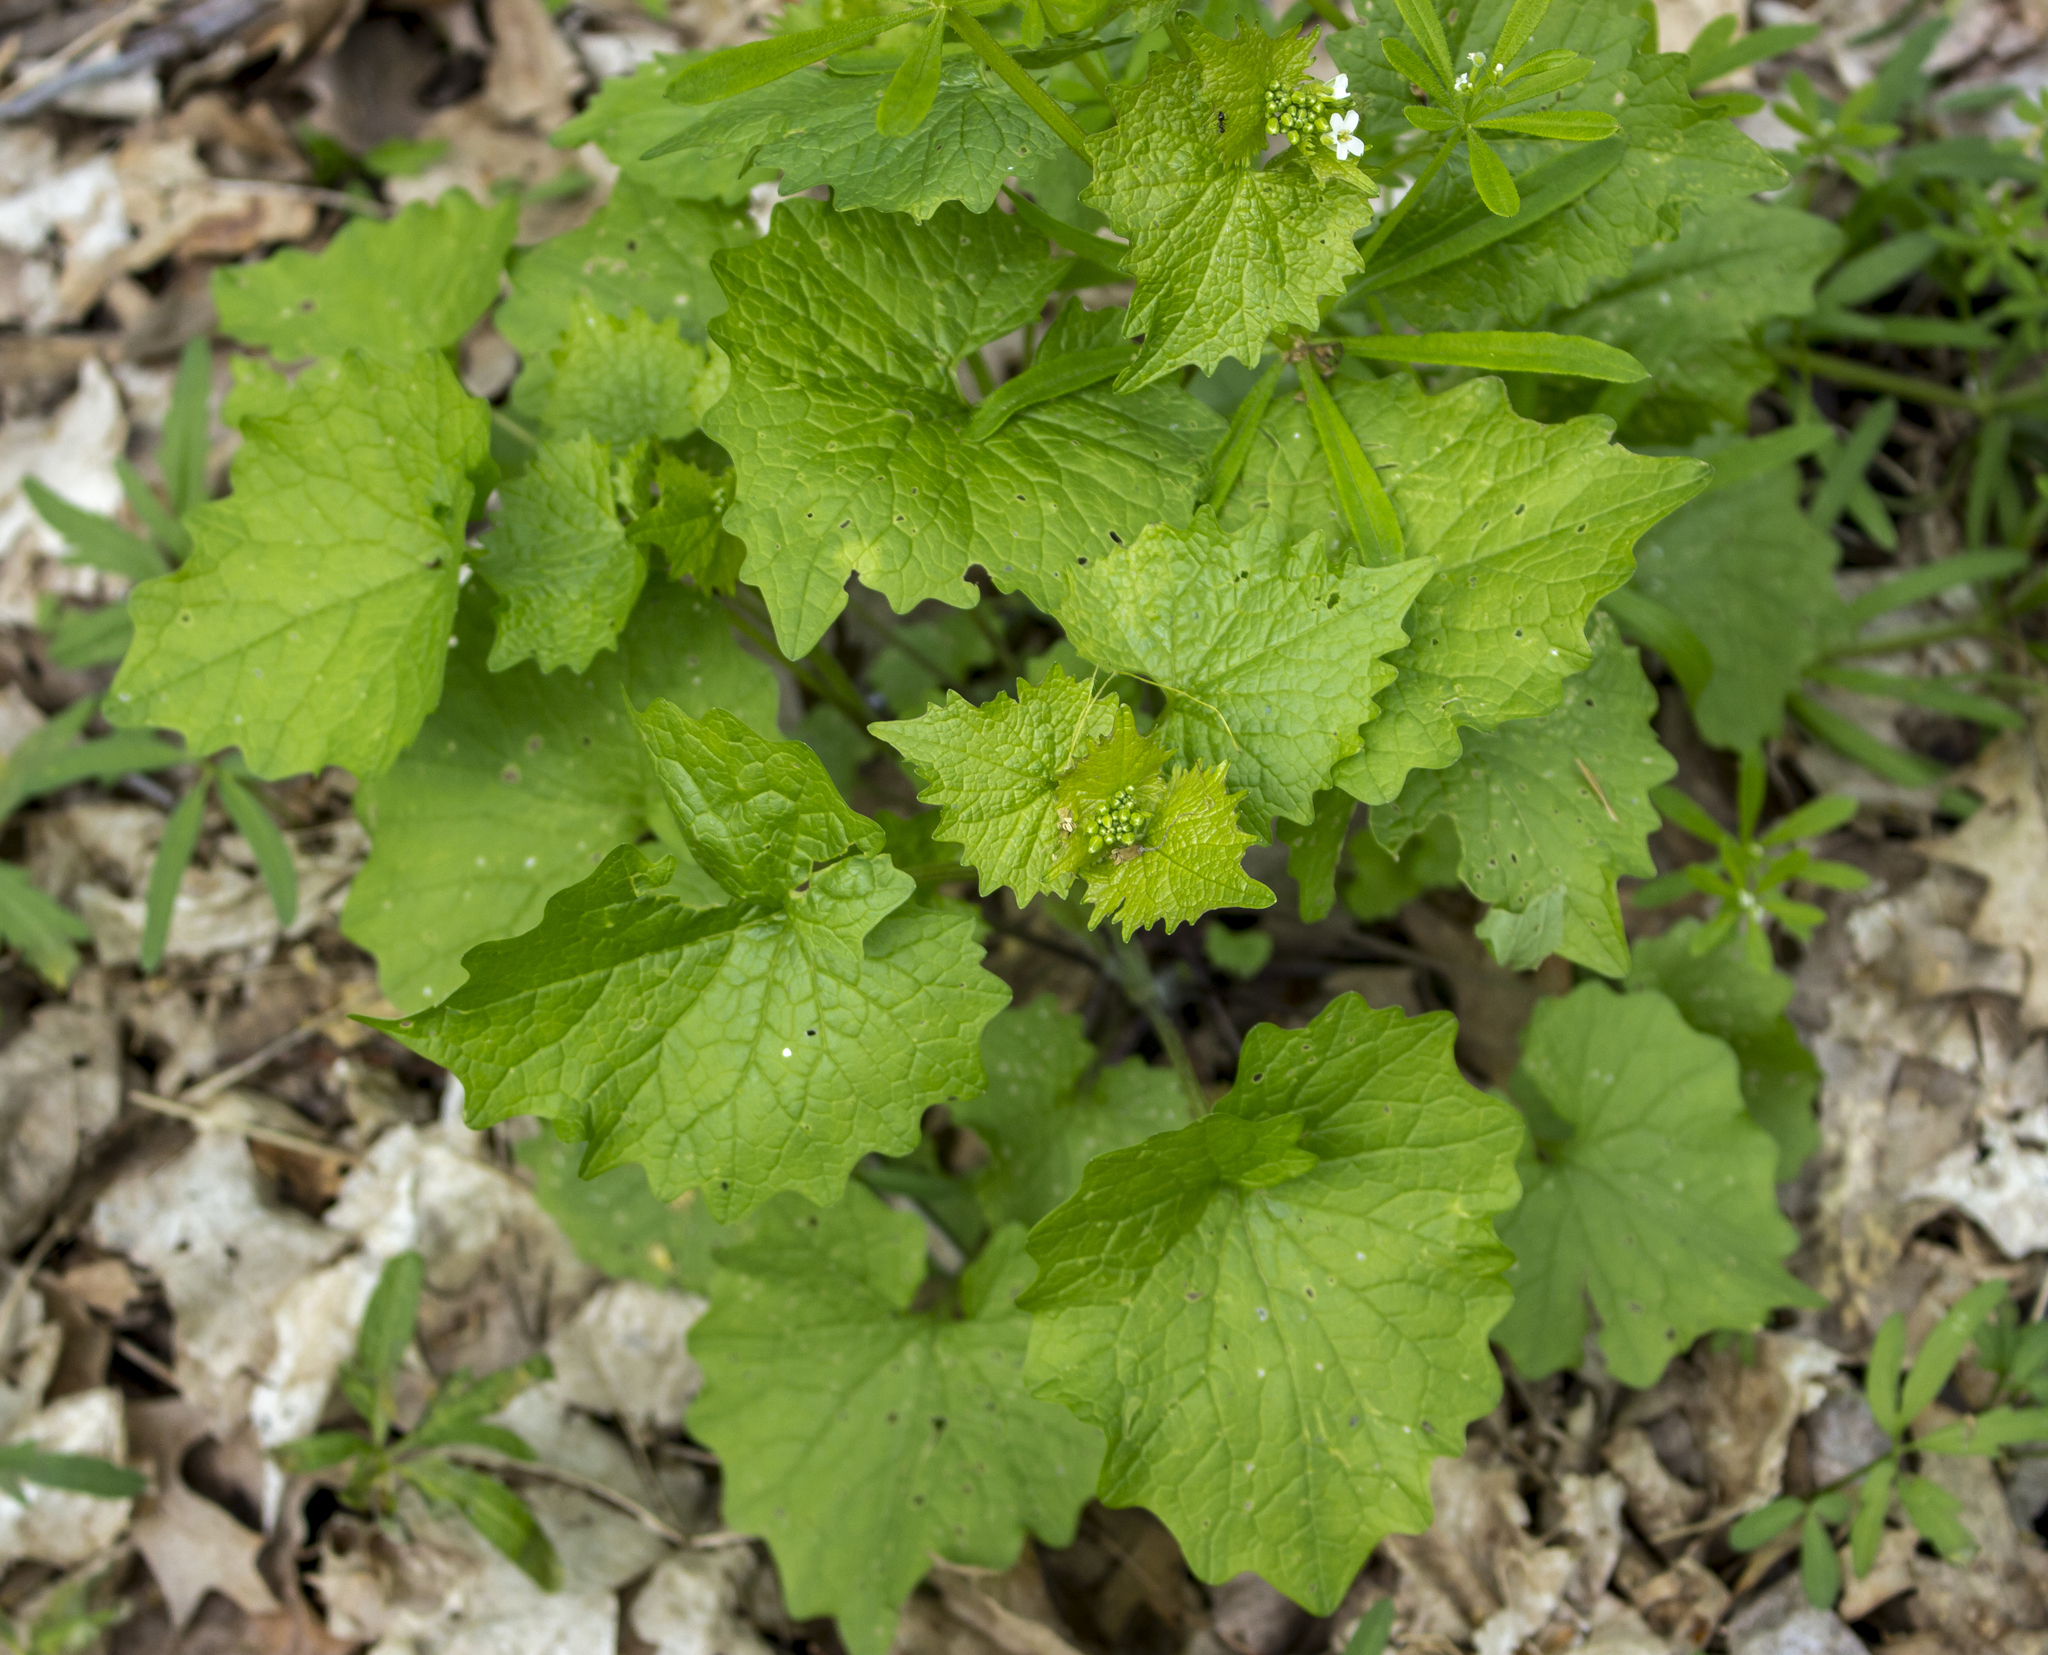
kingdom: Plantae
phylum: Tracheophyta
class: Magnoliopsida
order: Brassicales
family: Brassicaceae
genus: Alliaria
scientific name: Alliaria petiolata
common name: Garlic mustard
